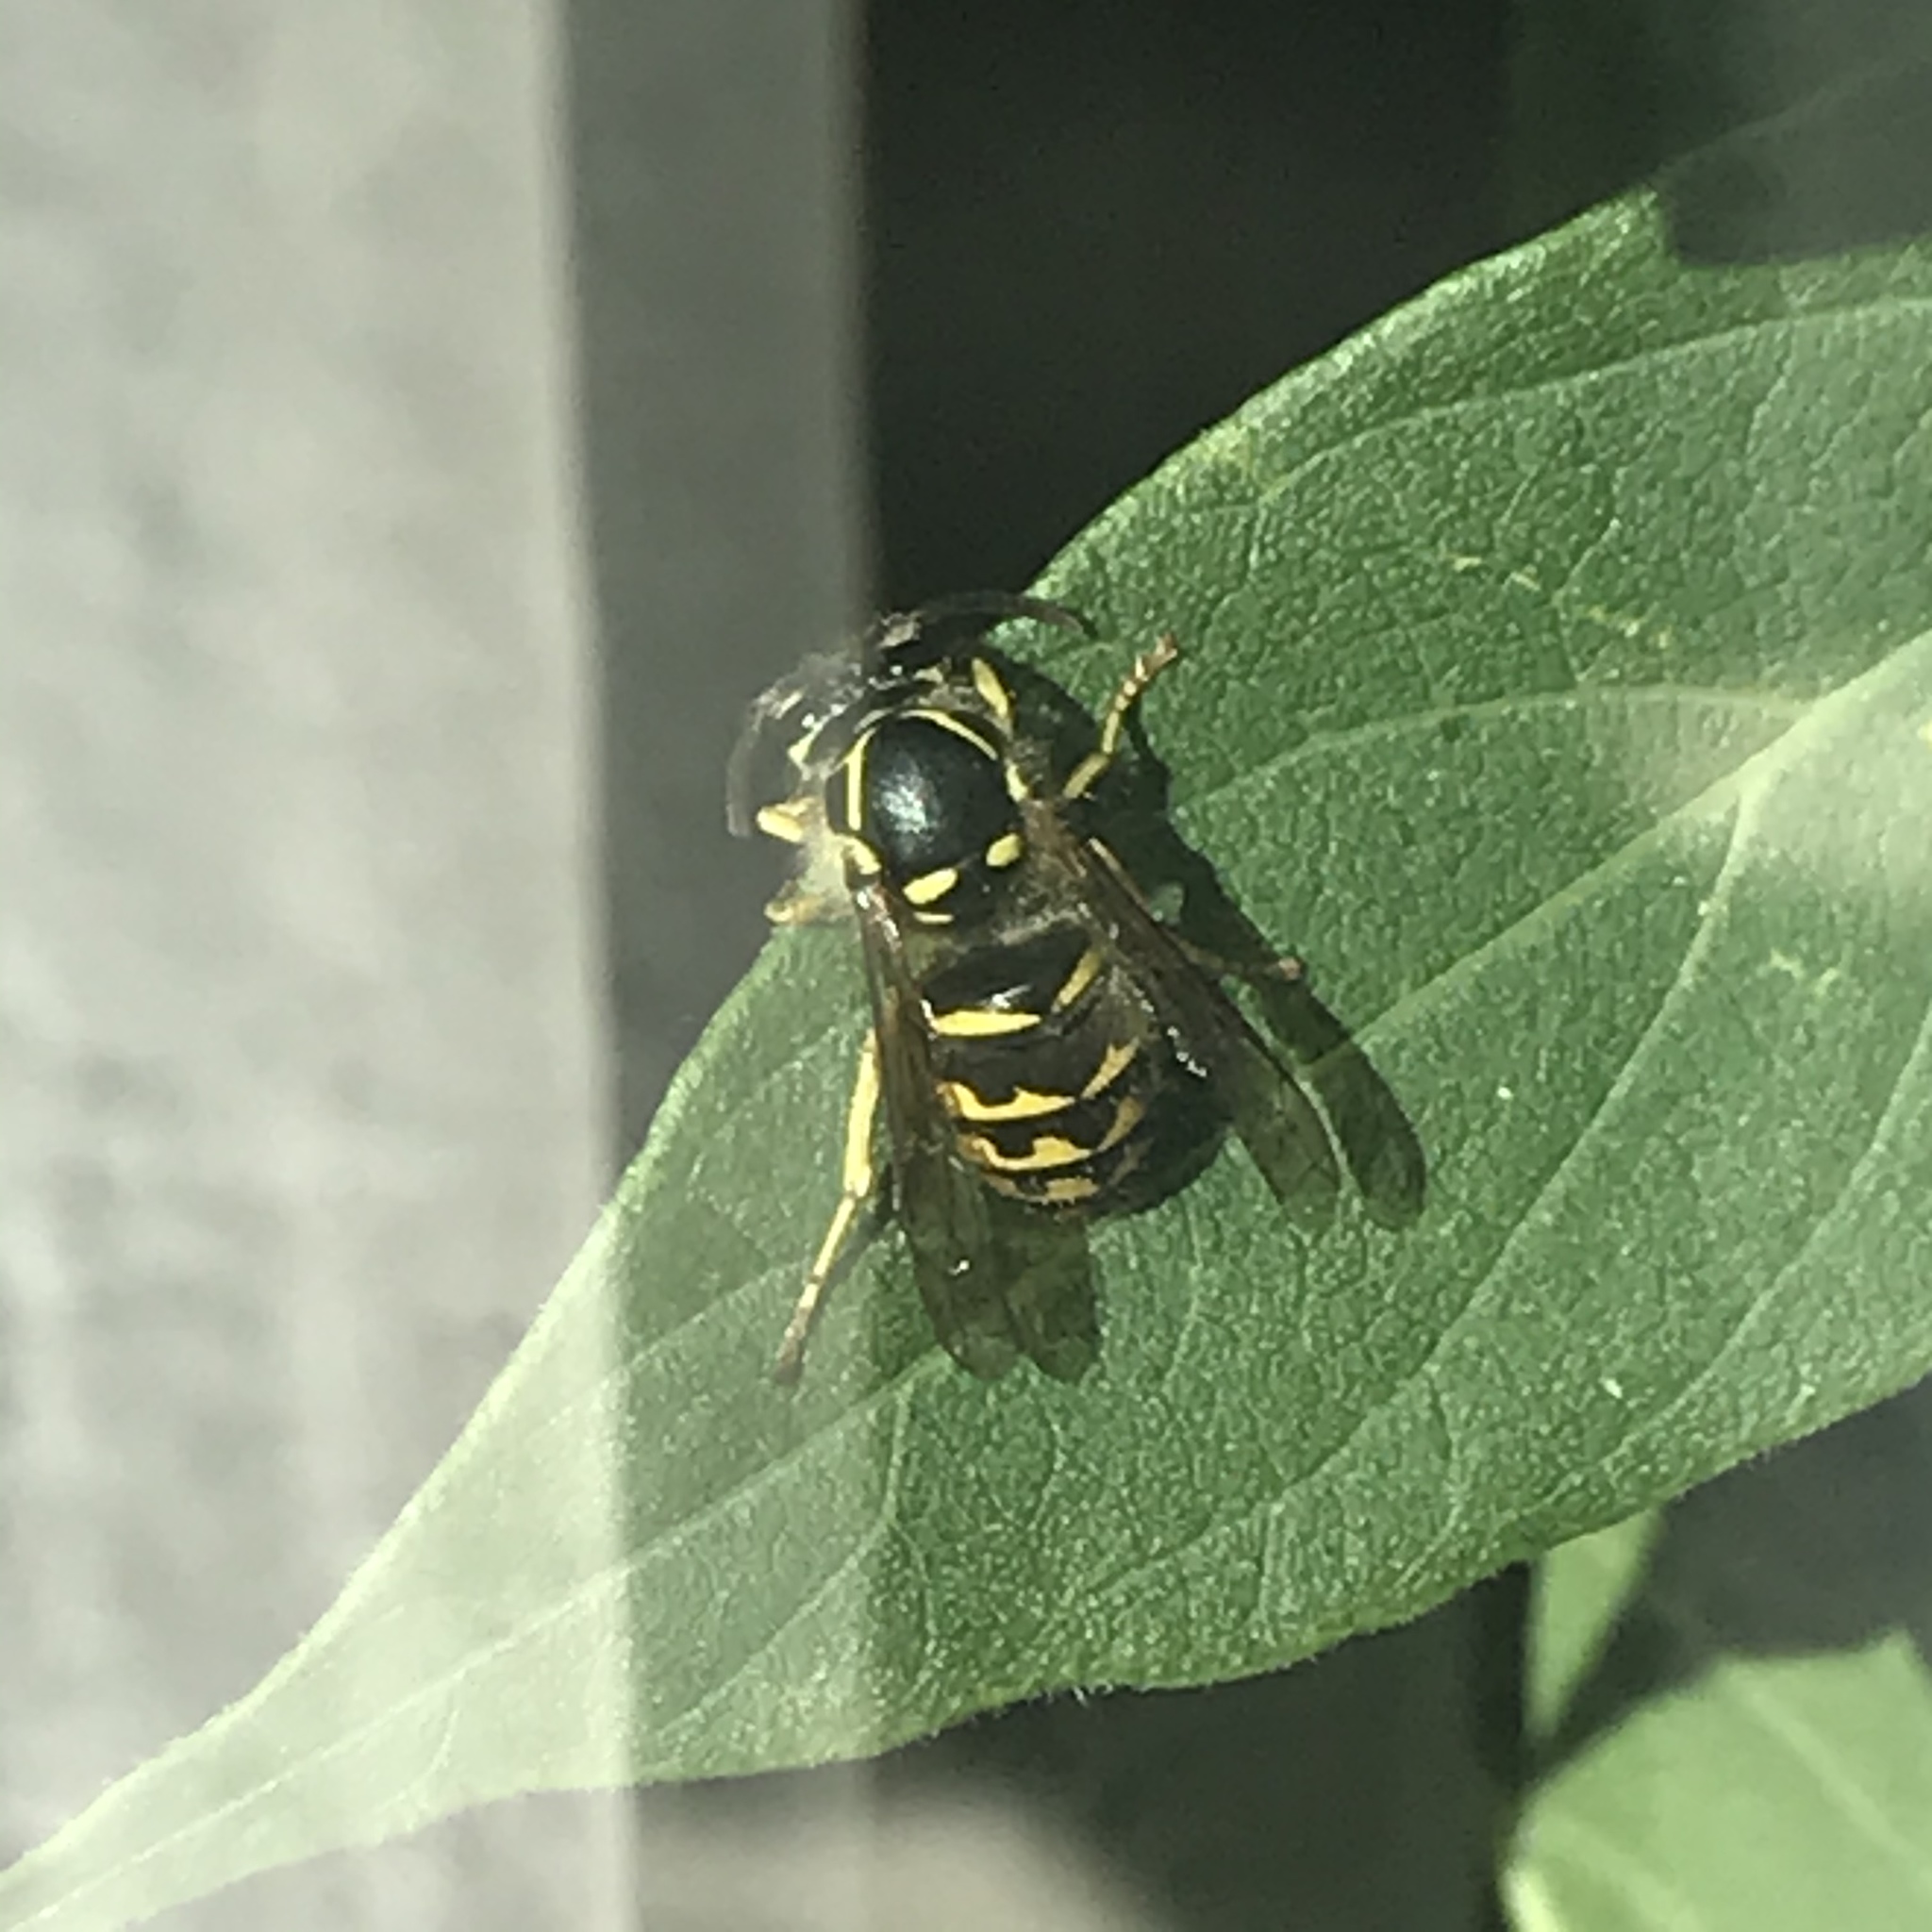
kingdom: Animalia
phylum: Arthropoda
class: Insecta
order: Hymenoptera
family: Vespidae
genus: Dolichovespula
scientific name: Dolichovespula arenaria
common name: Aerial yellowjacket
